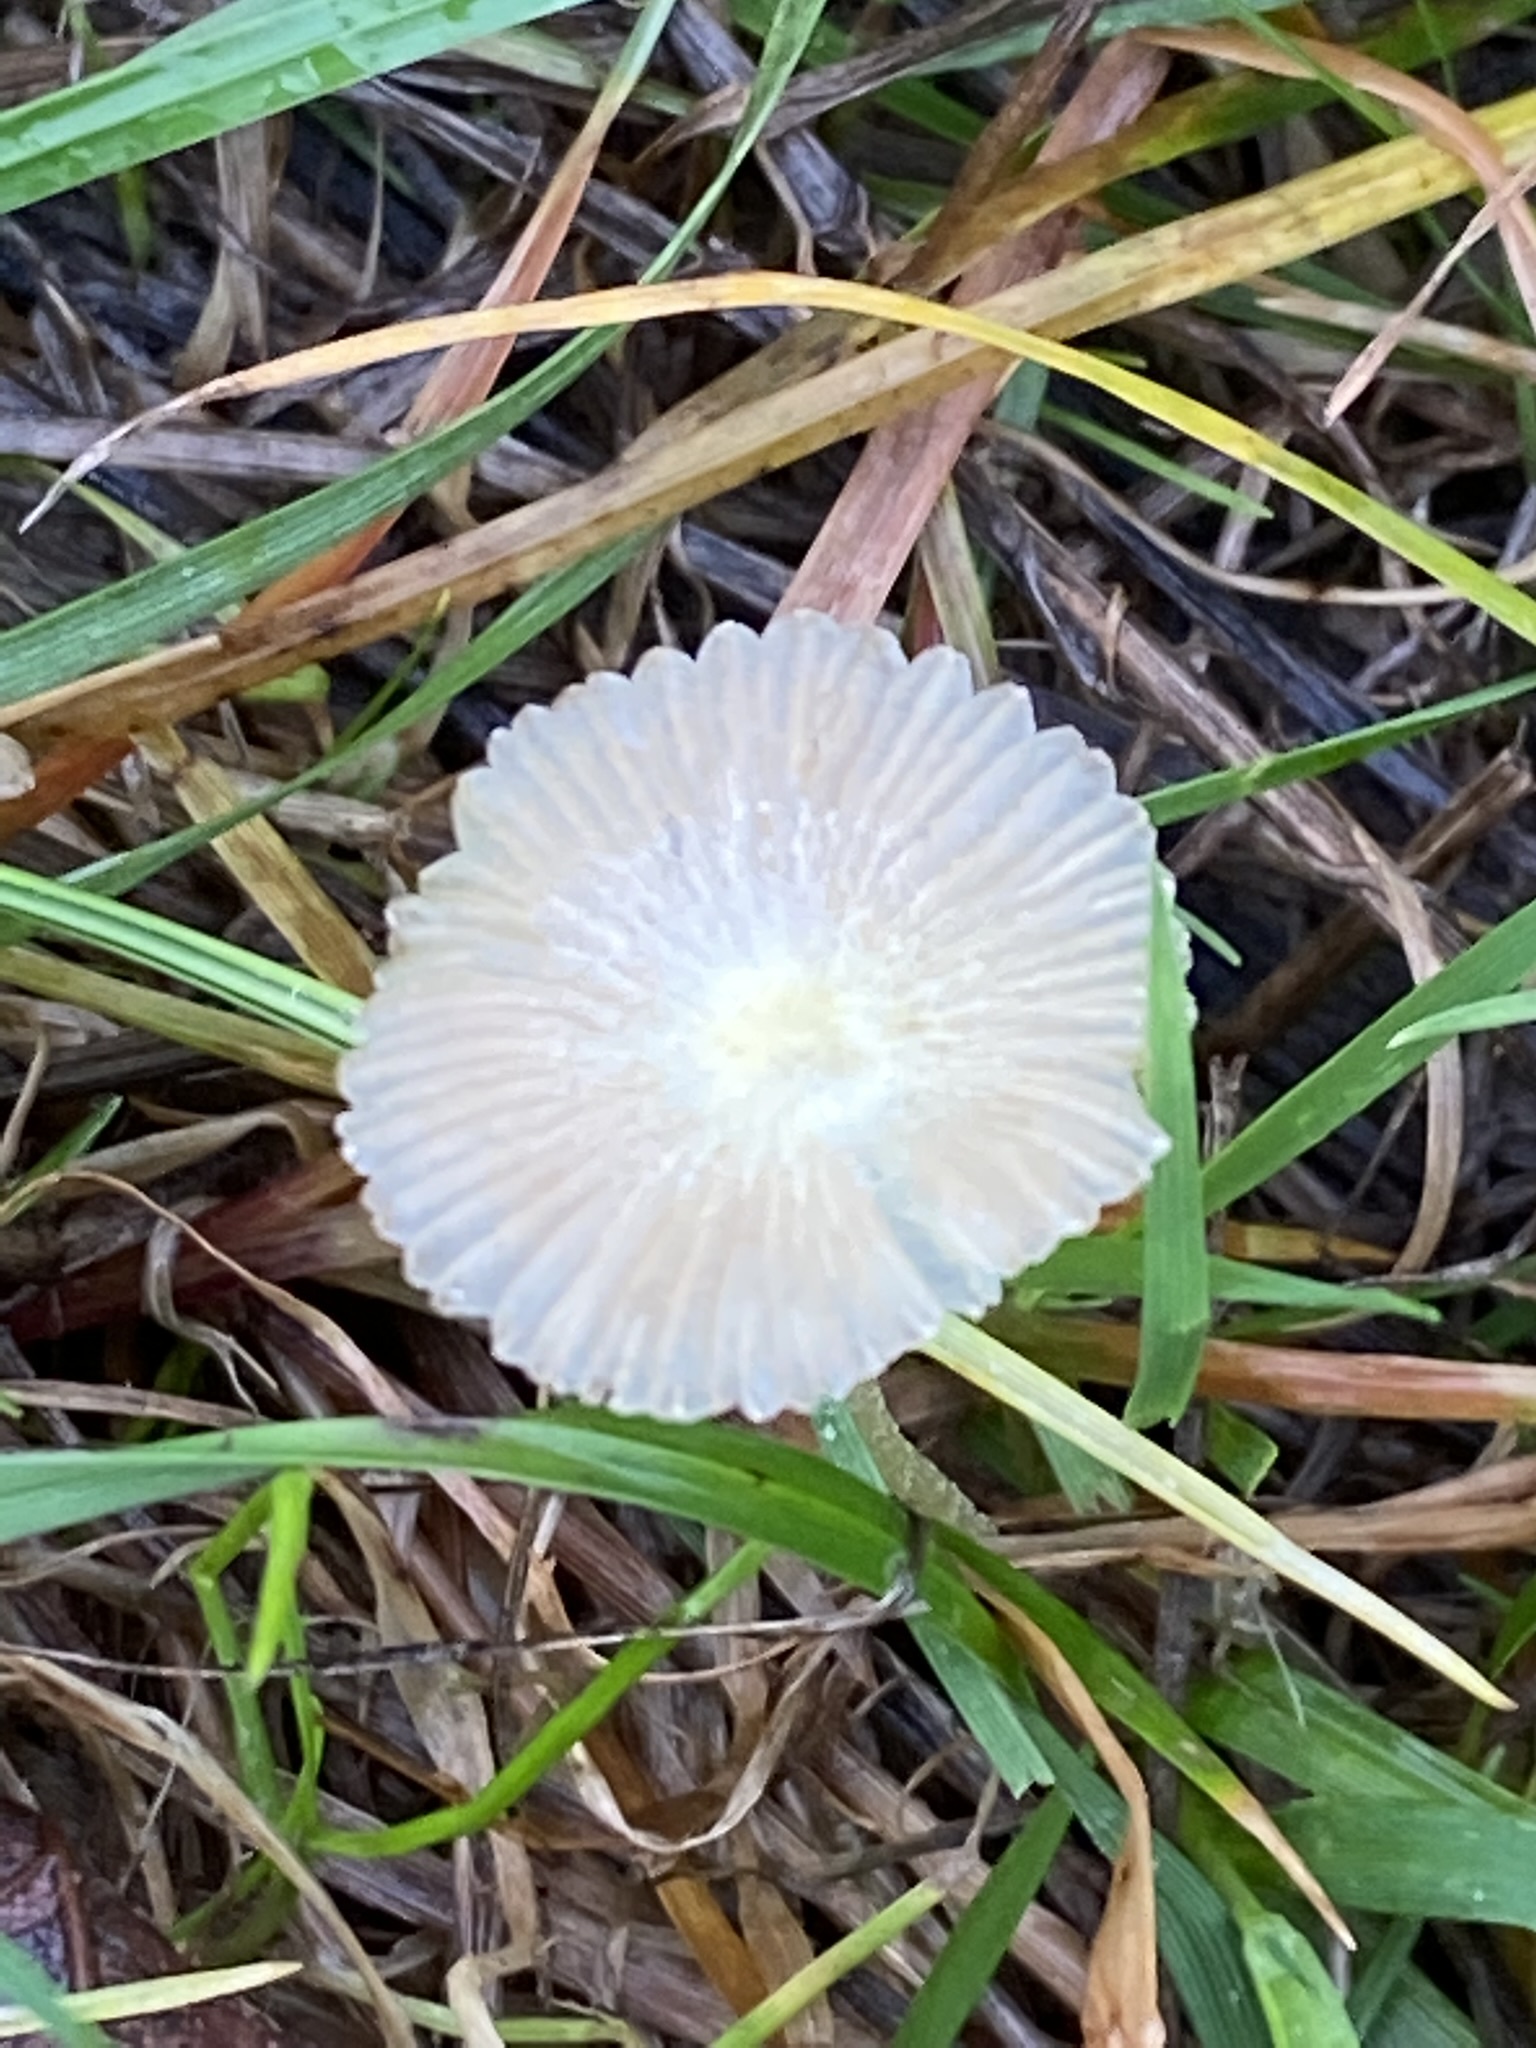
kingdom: Fungi
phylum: Basidiomycota
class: Agaricomycetes
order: Agaricales
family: Bolbitiaceae
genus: Bolbitius
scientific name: Bolbitius titubans
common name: Yellow fieldcap
